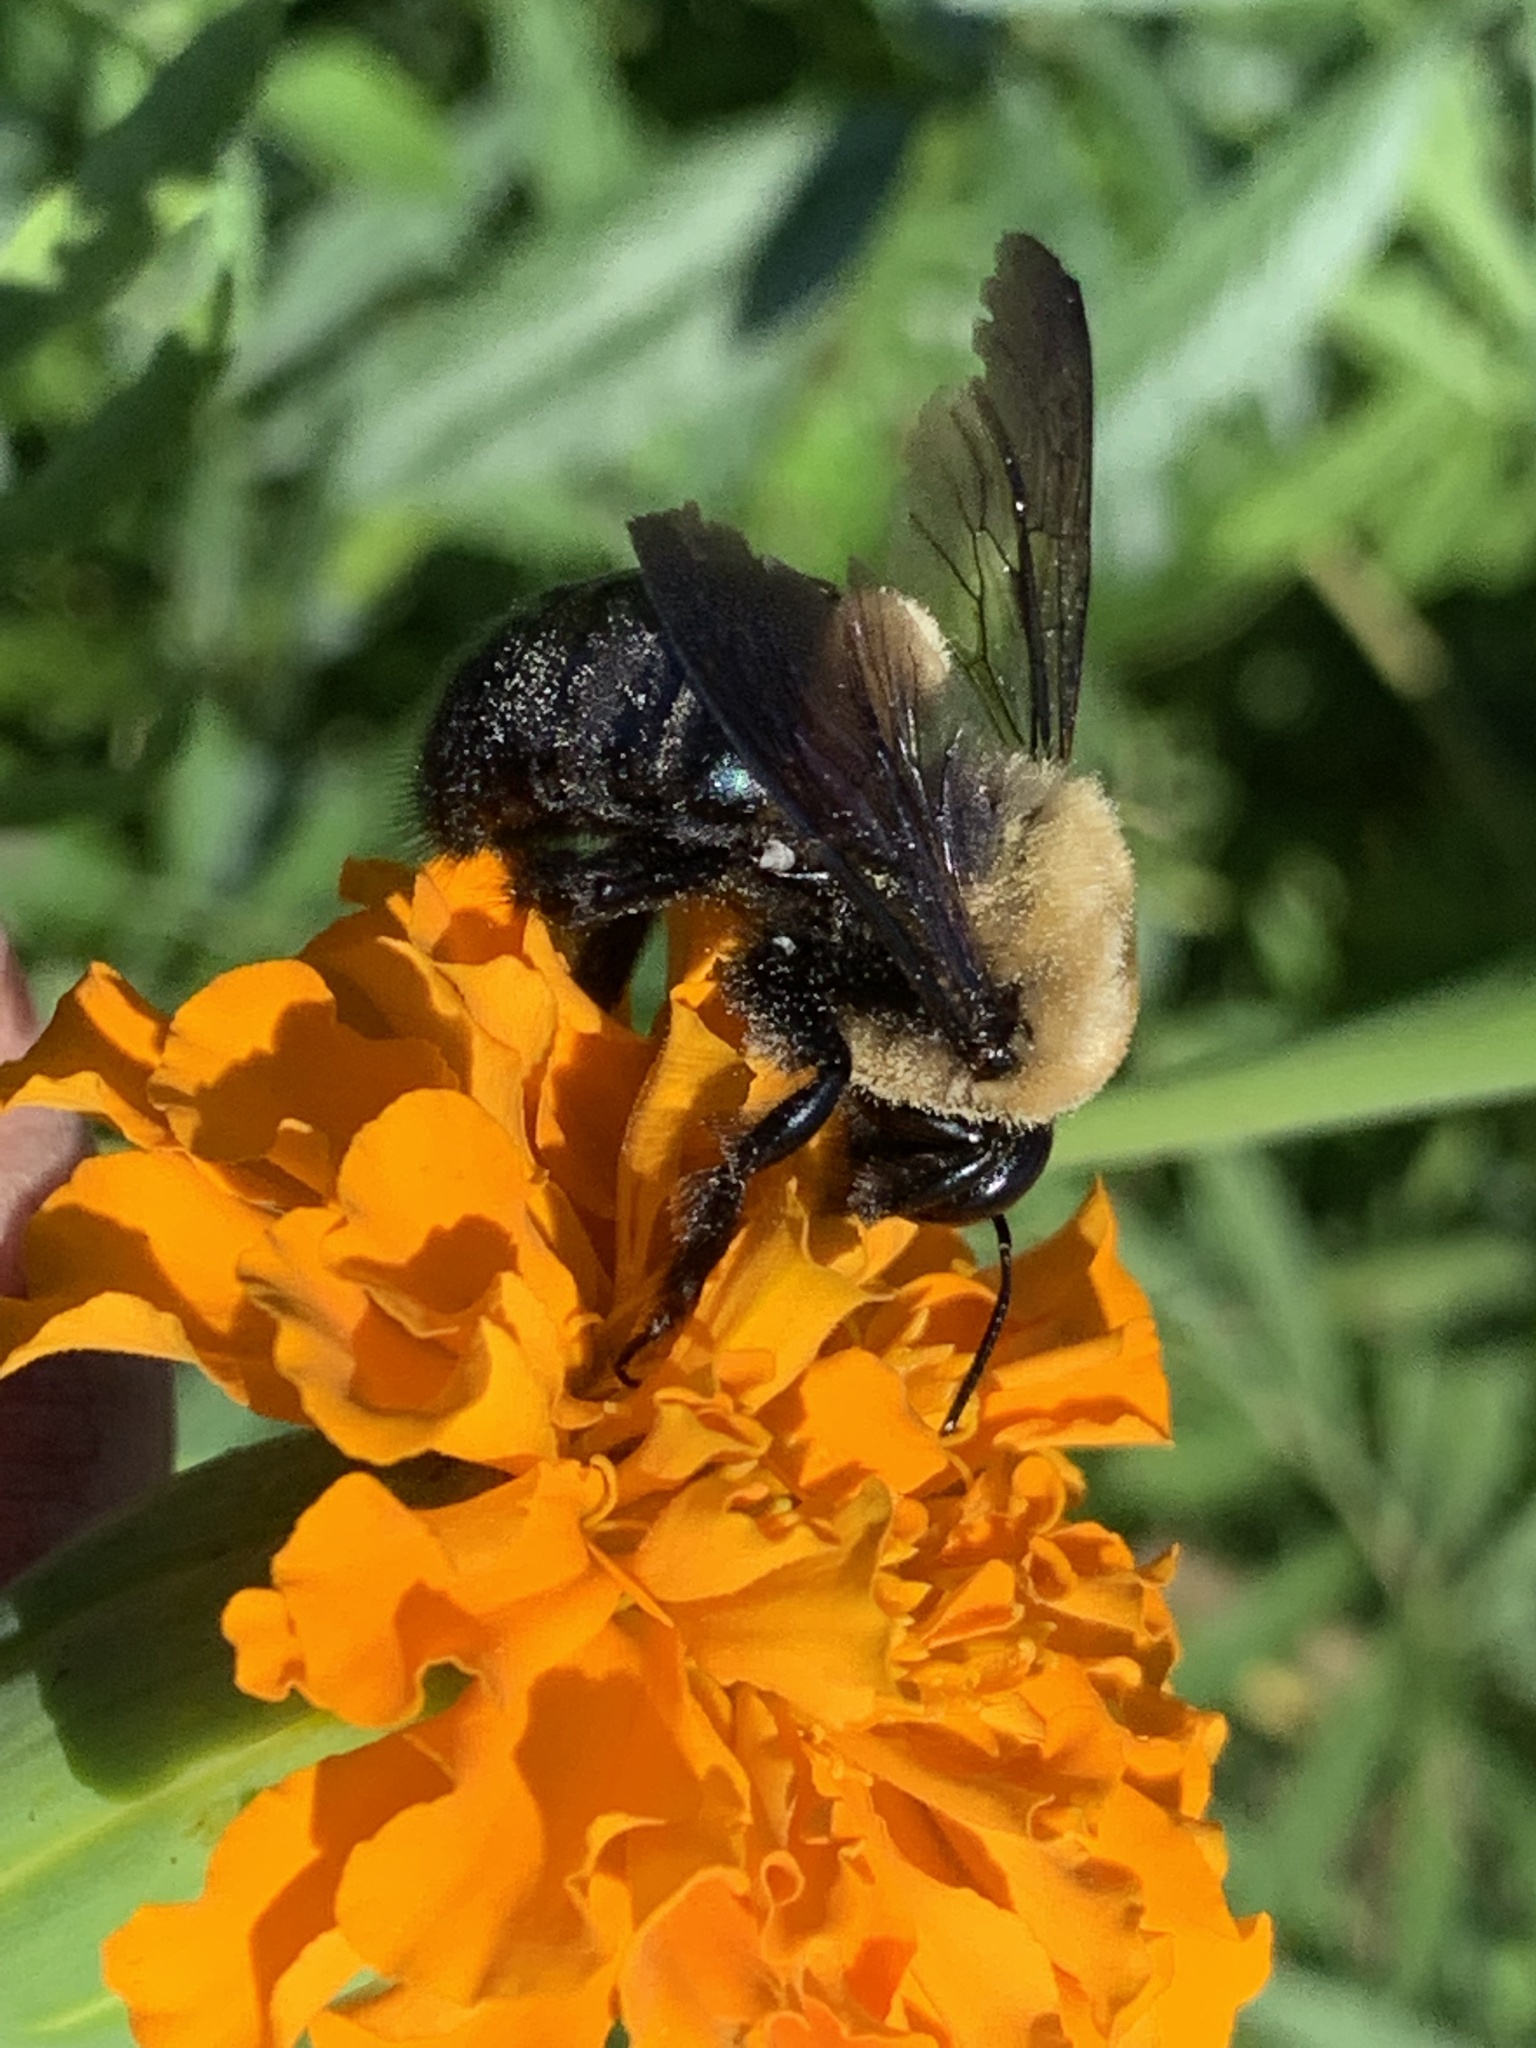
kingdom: Animalia
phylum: Arthropoda
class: Insecta
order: Hymenoptera
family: Apidae
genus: Xylocopa
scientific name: Xylocopa virginica
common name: Carpenter bee
